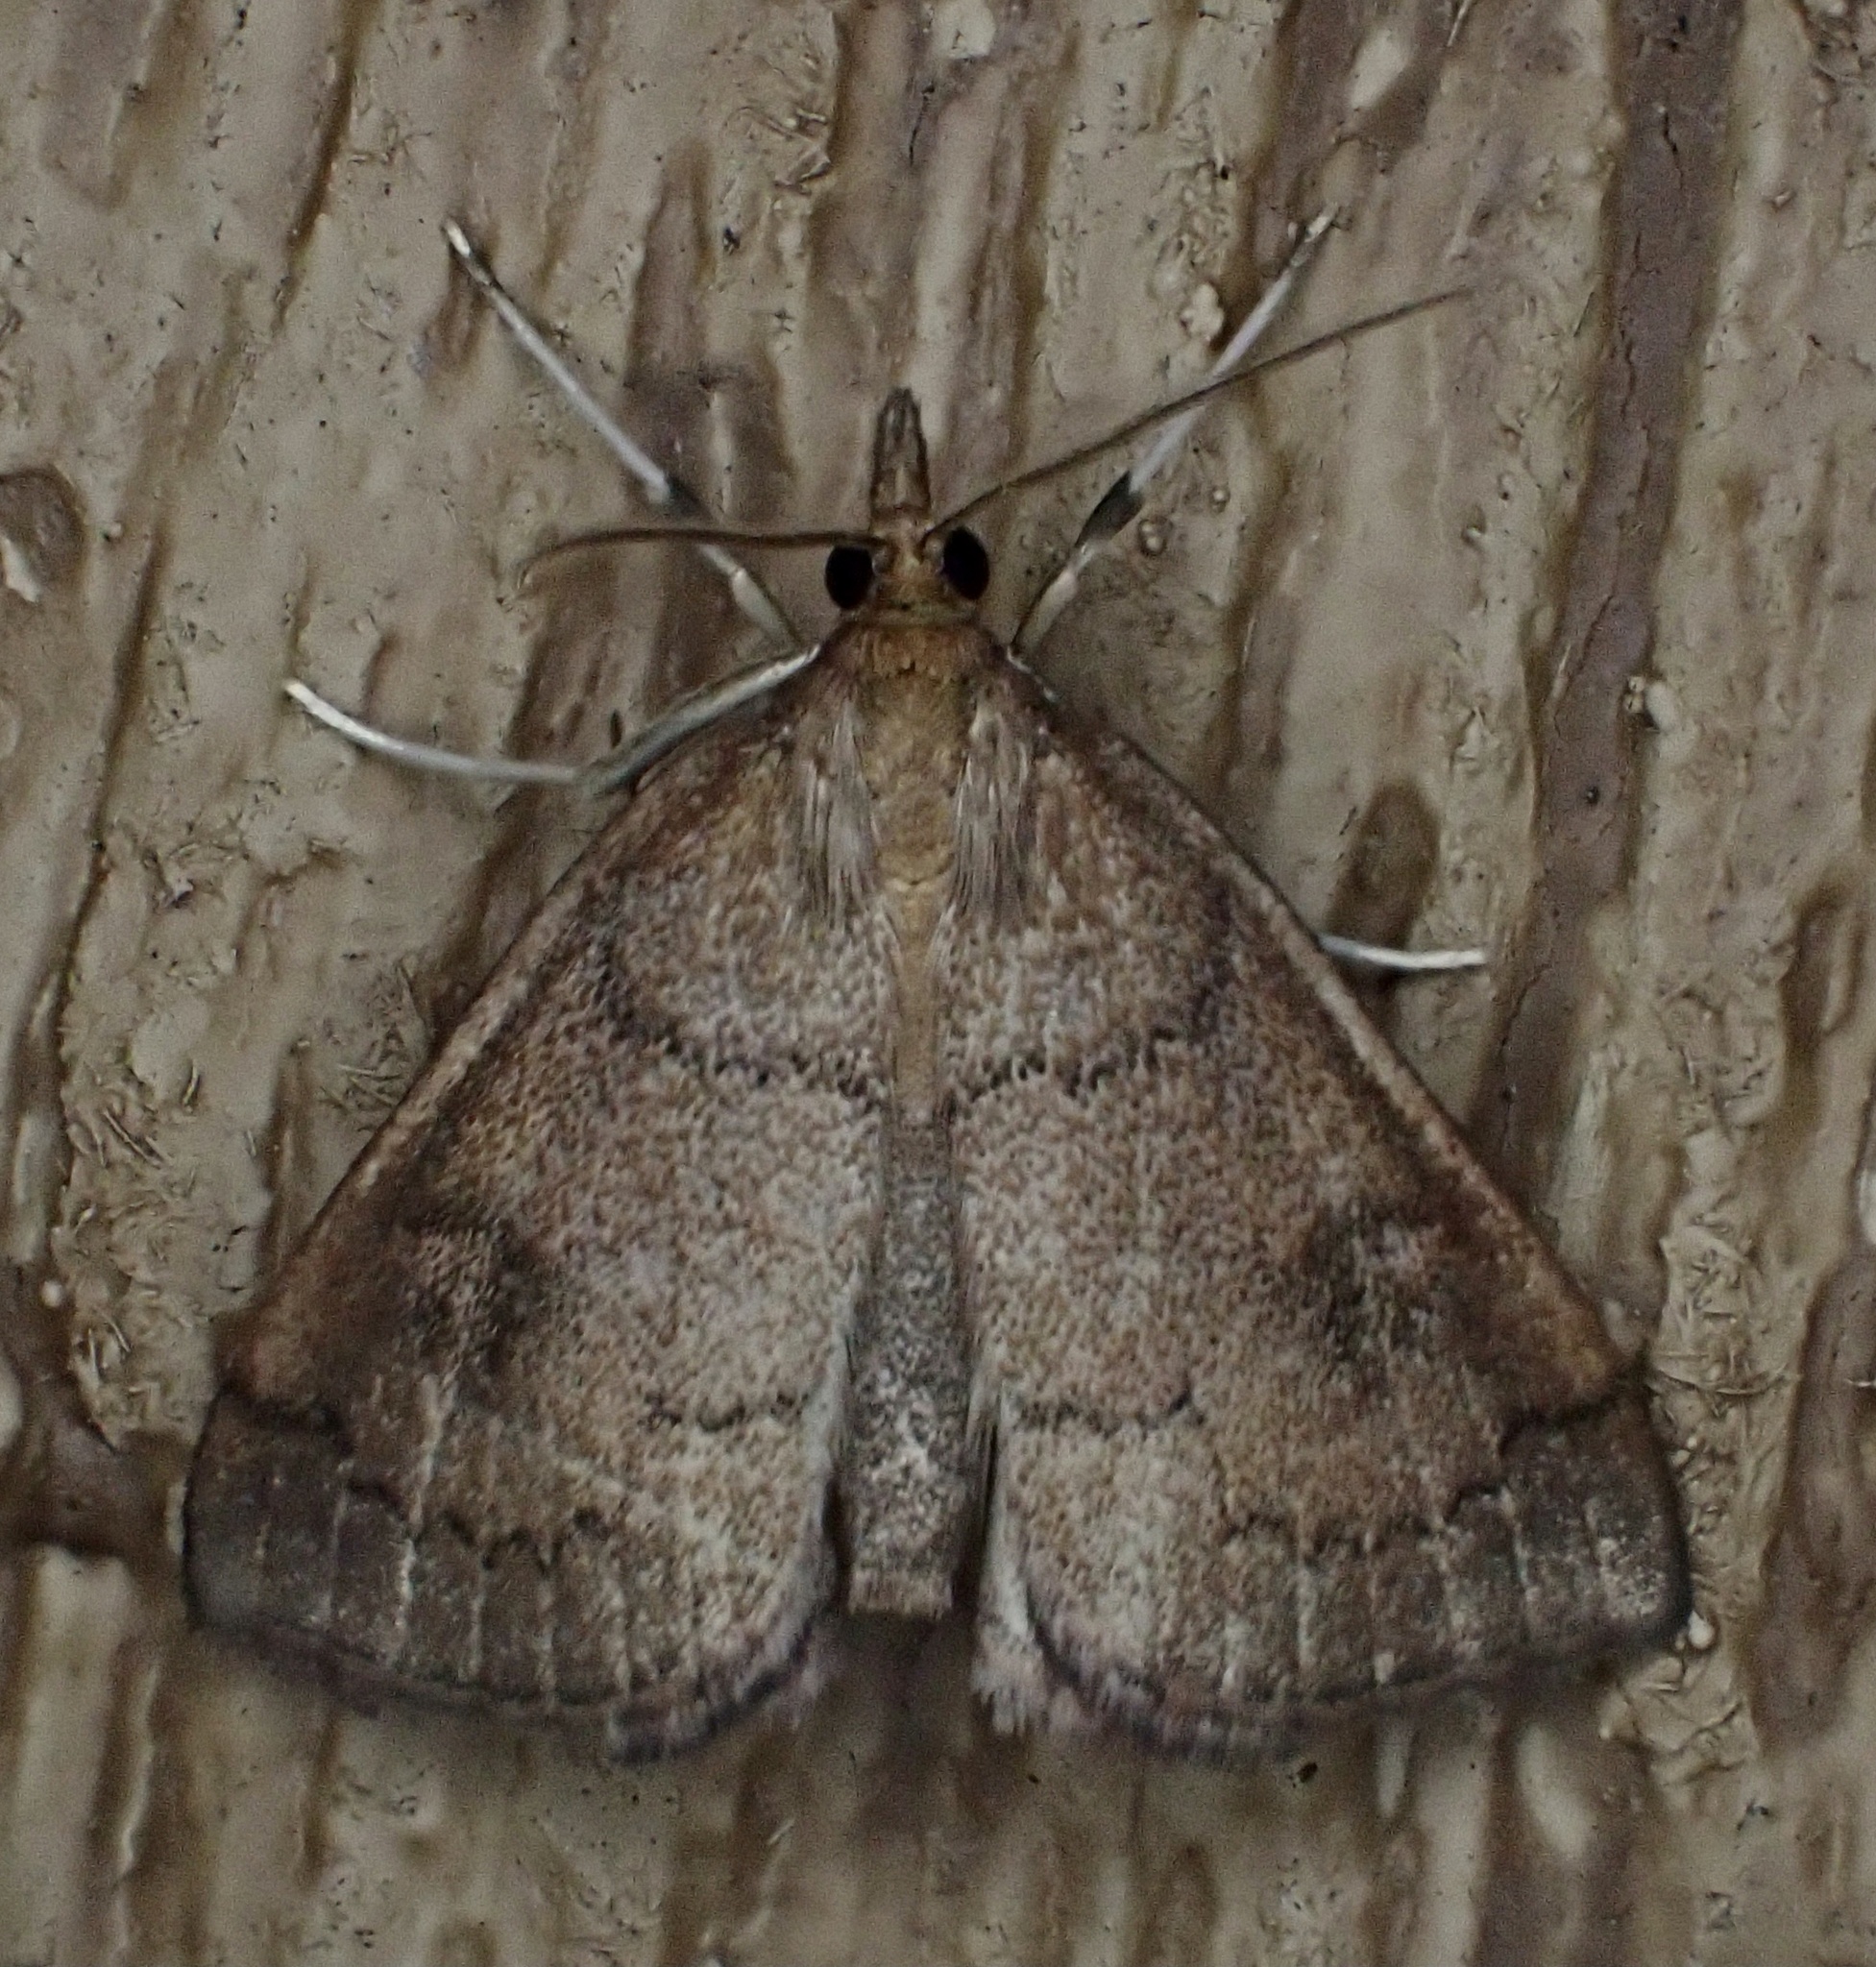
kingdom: Animalia
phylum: Arthropoda
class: Insecta
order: Lepidoptera
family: Crambidae
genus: Fumibotys
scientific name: Fumibotys fumalis
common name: Mint root borer moth
